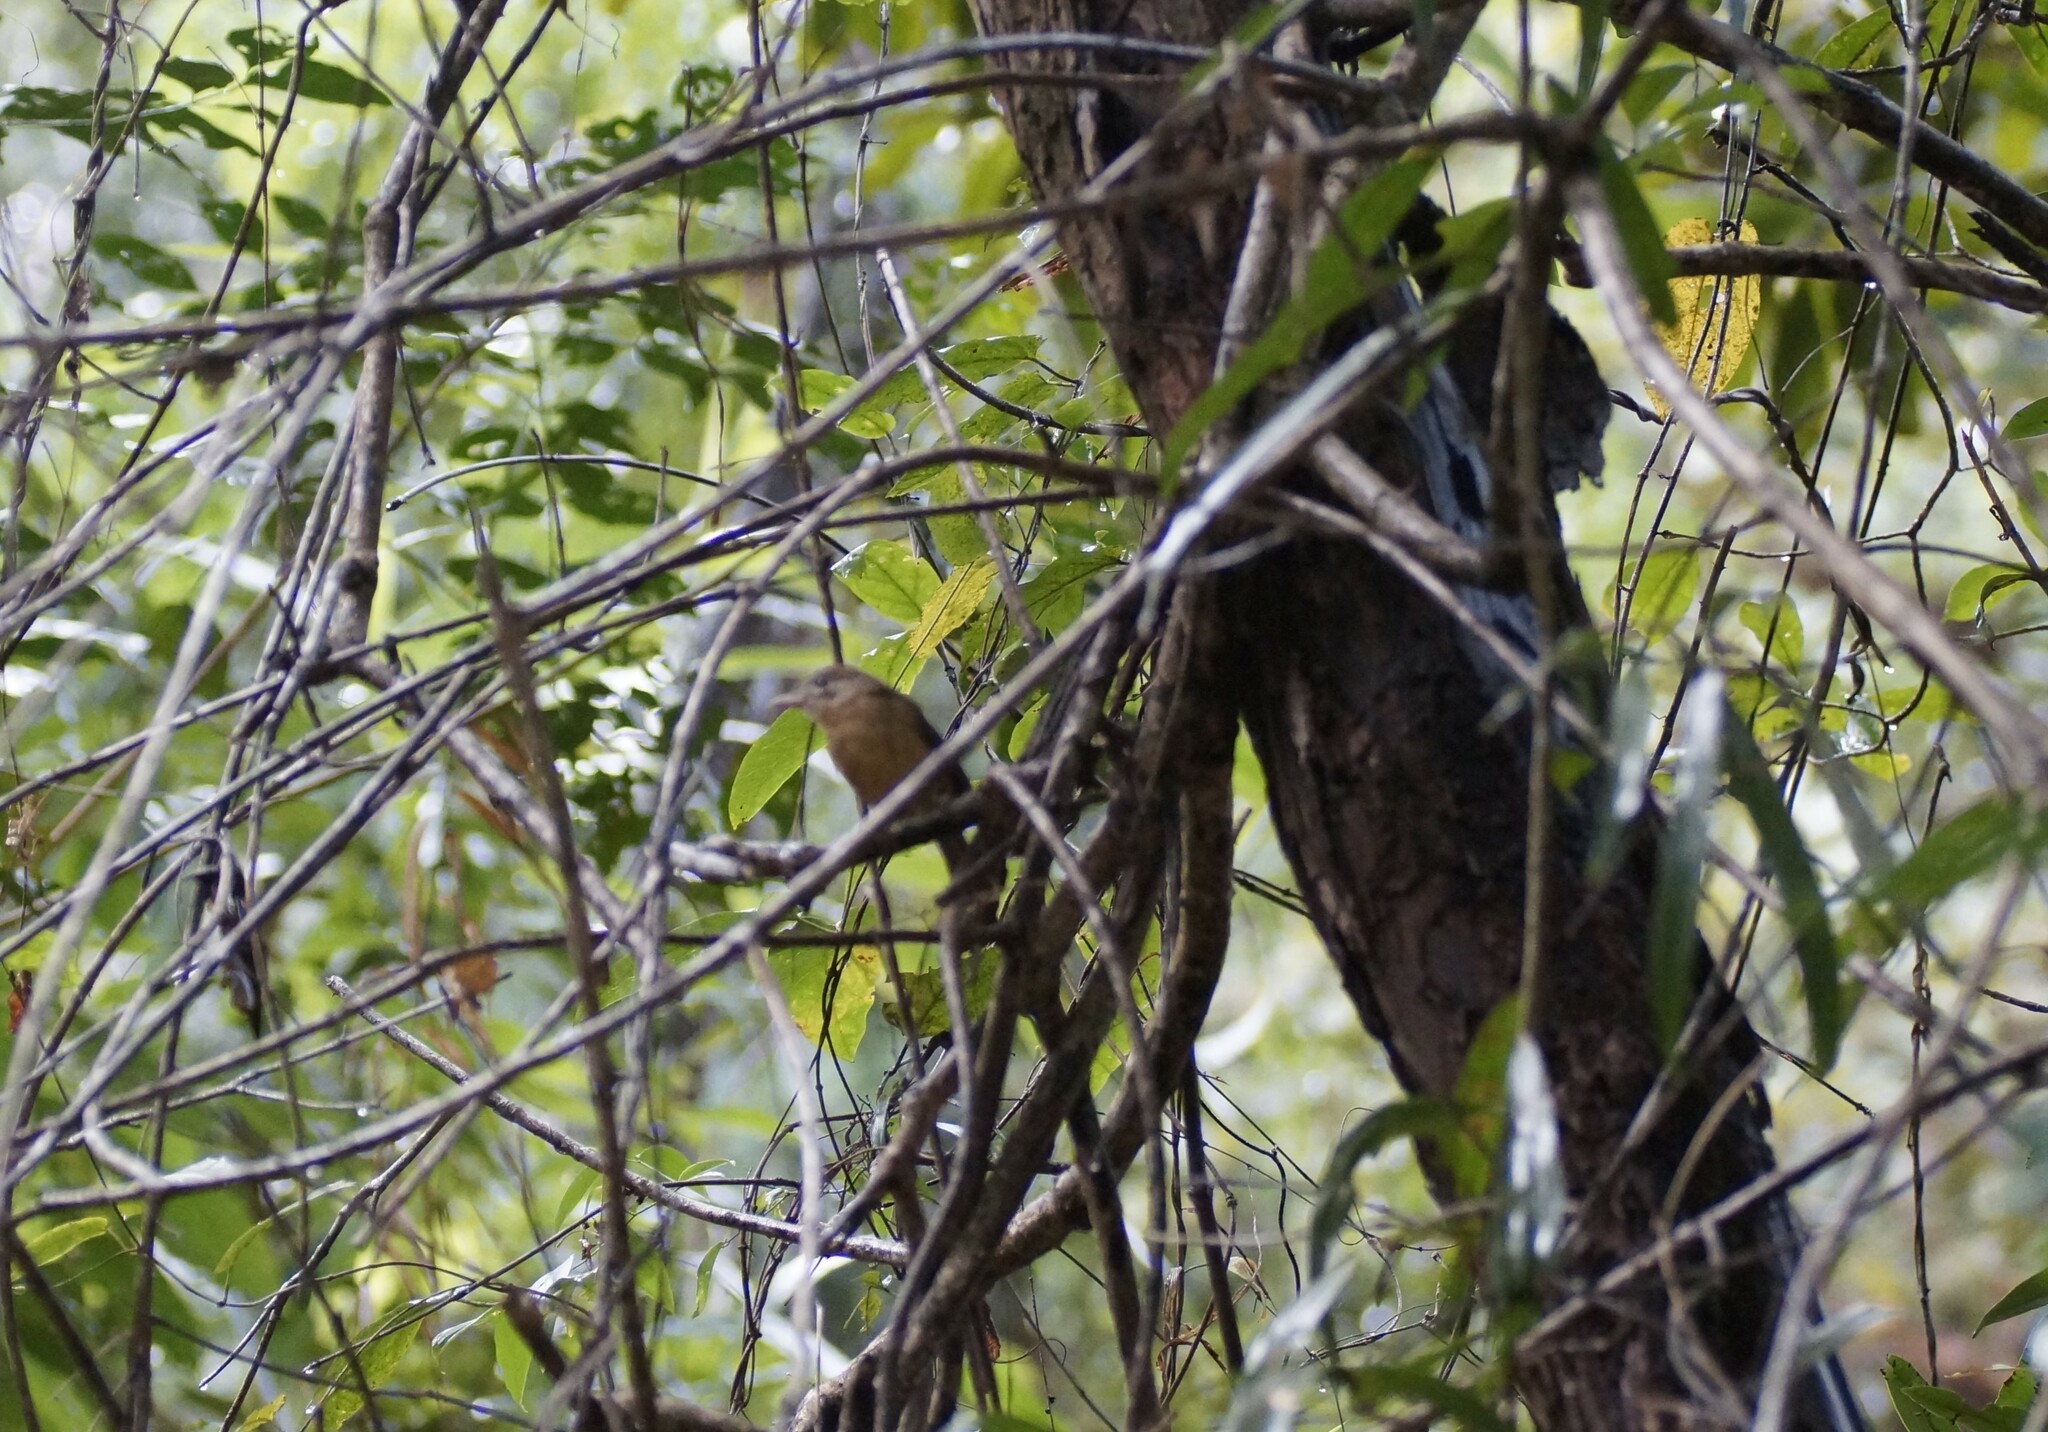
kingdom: Animalia
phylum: Chordata
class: Aves
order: Passeriformes
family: Pachycephalidae
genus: Colluricincla
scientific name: Colluricincla rufogaster
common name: Rufous shrikethrush
